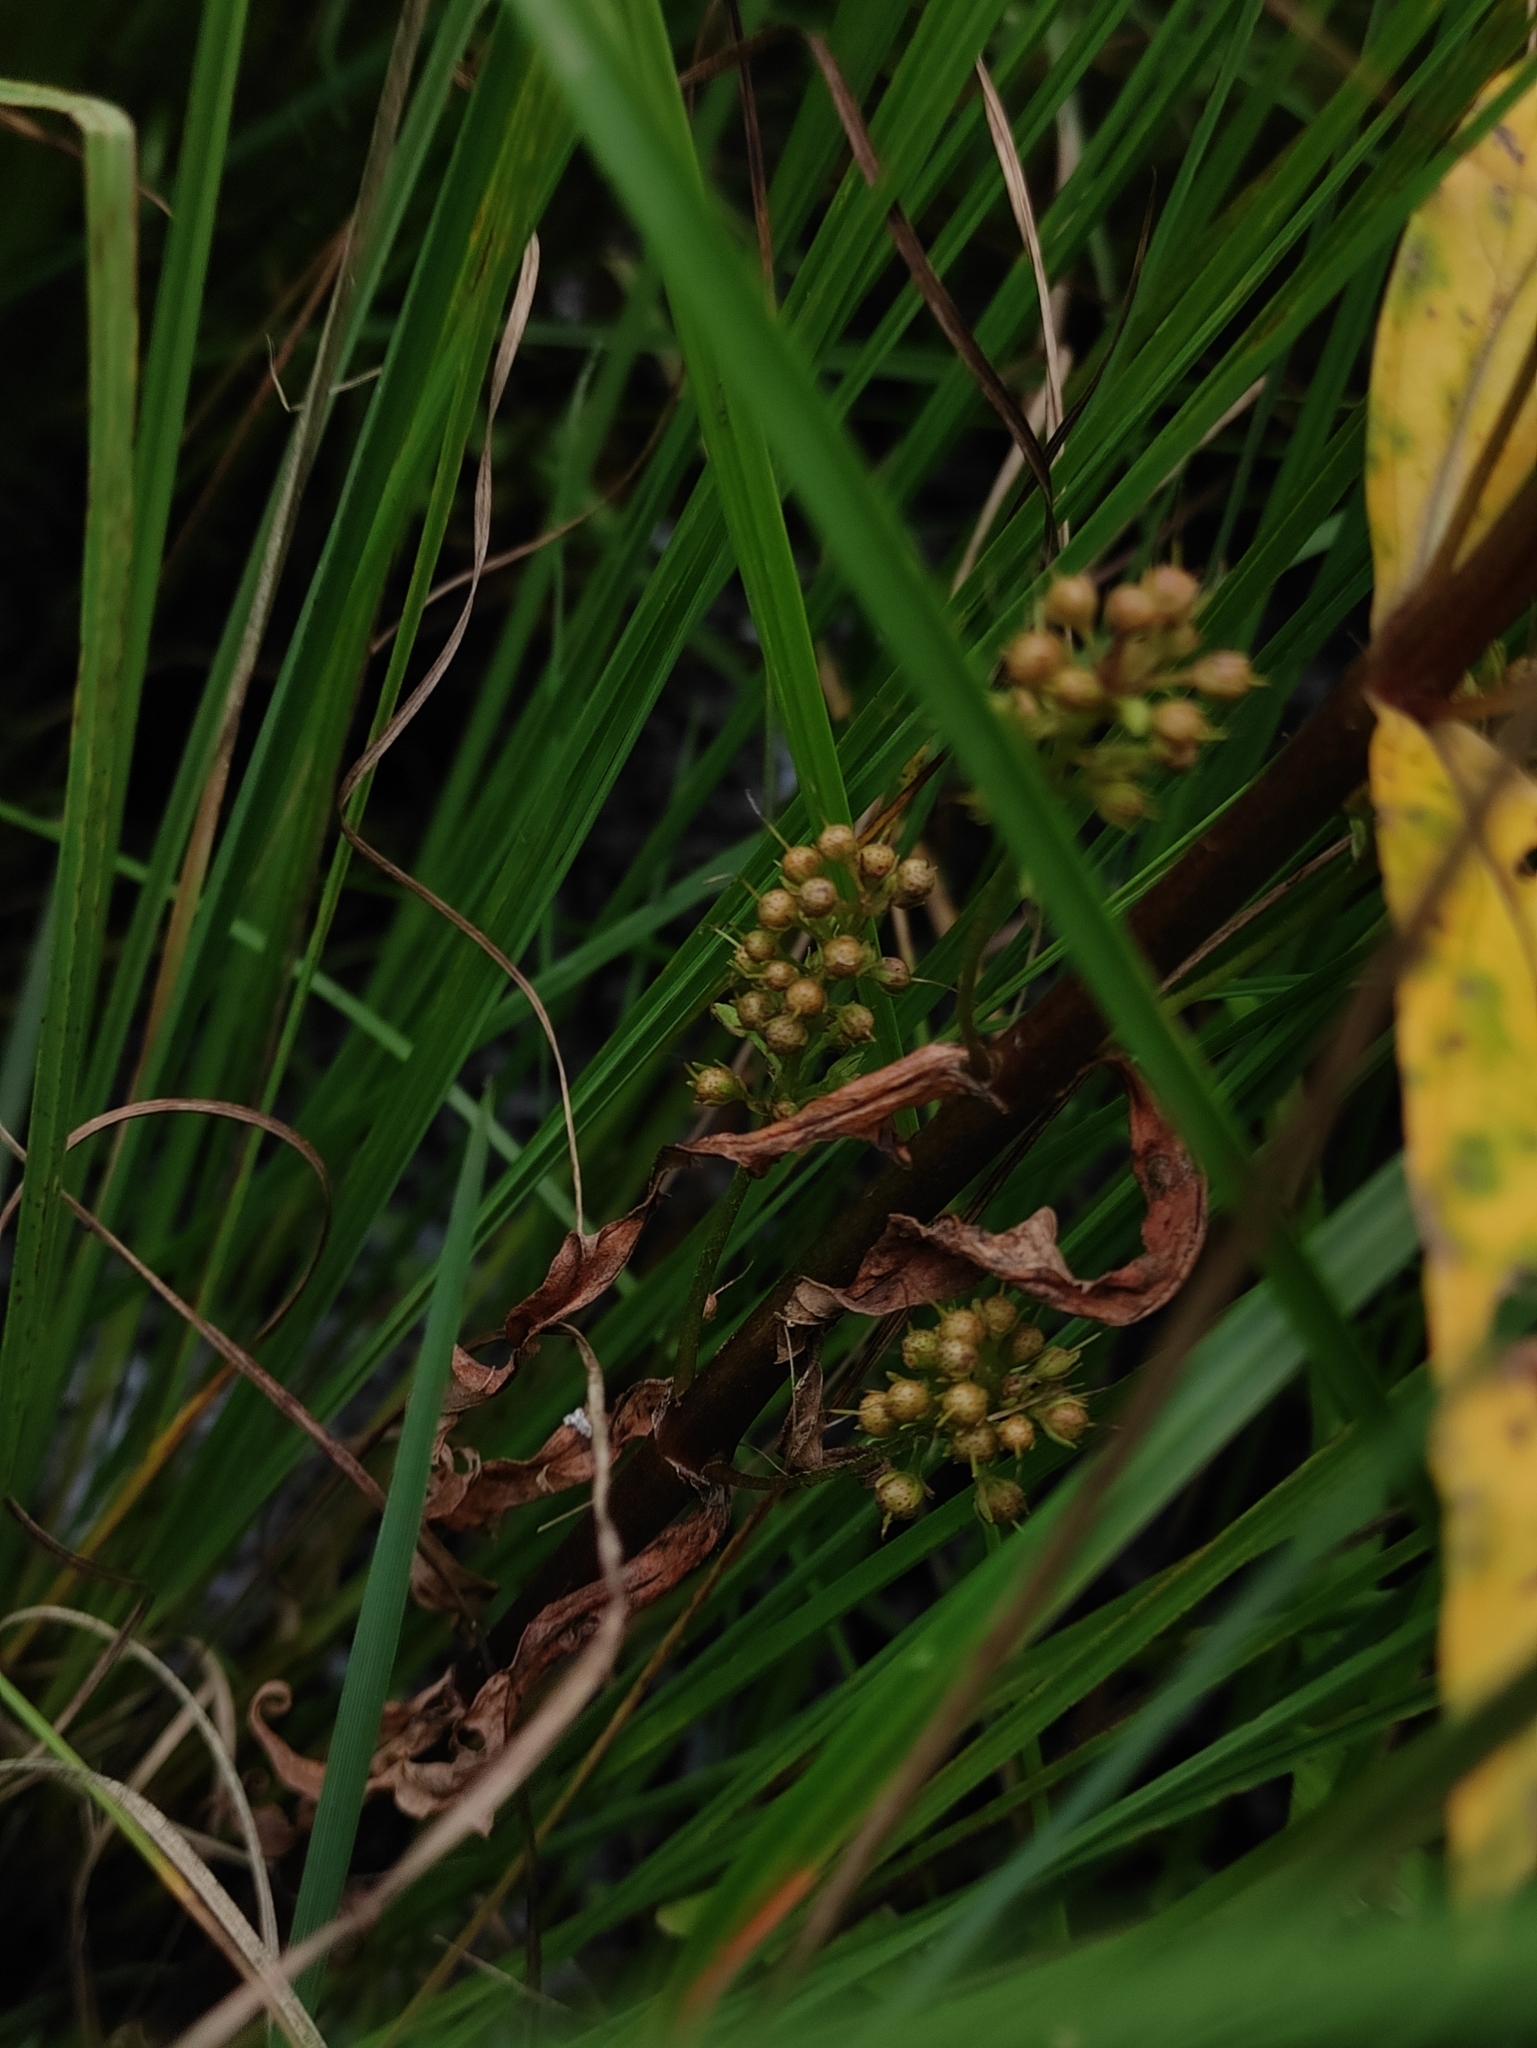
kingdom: Plantae
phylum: Tracheophyta
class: Magnoliopsida
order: Ericales
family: Primulaceae
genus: Lysimachia
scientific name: Lysimachia thyrsiflora
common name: Tufted loosestrife
